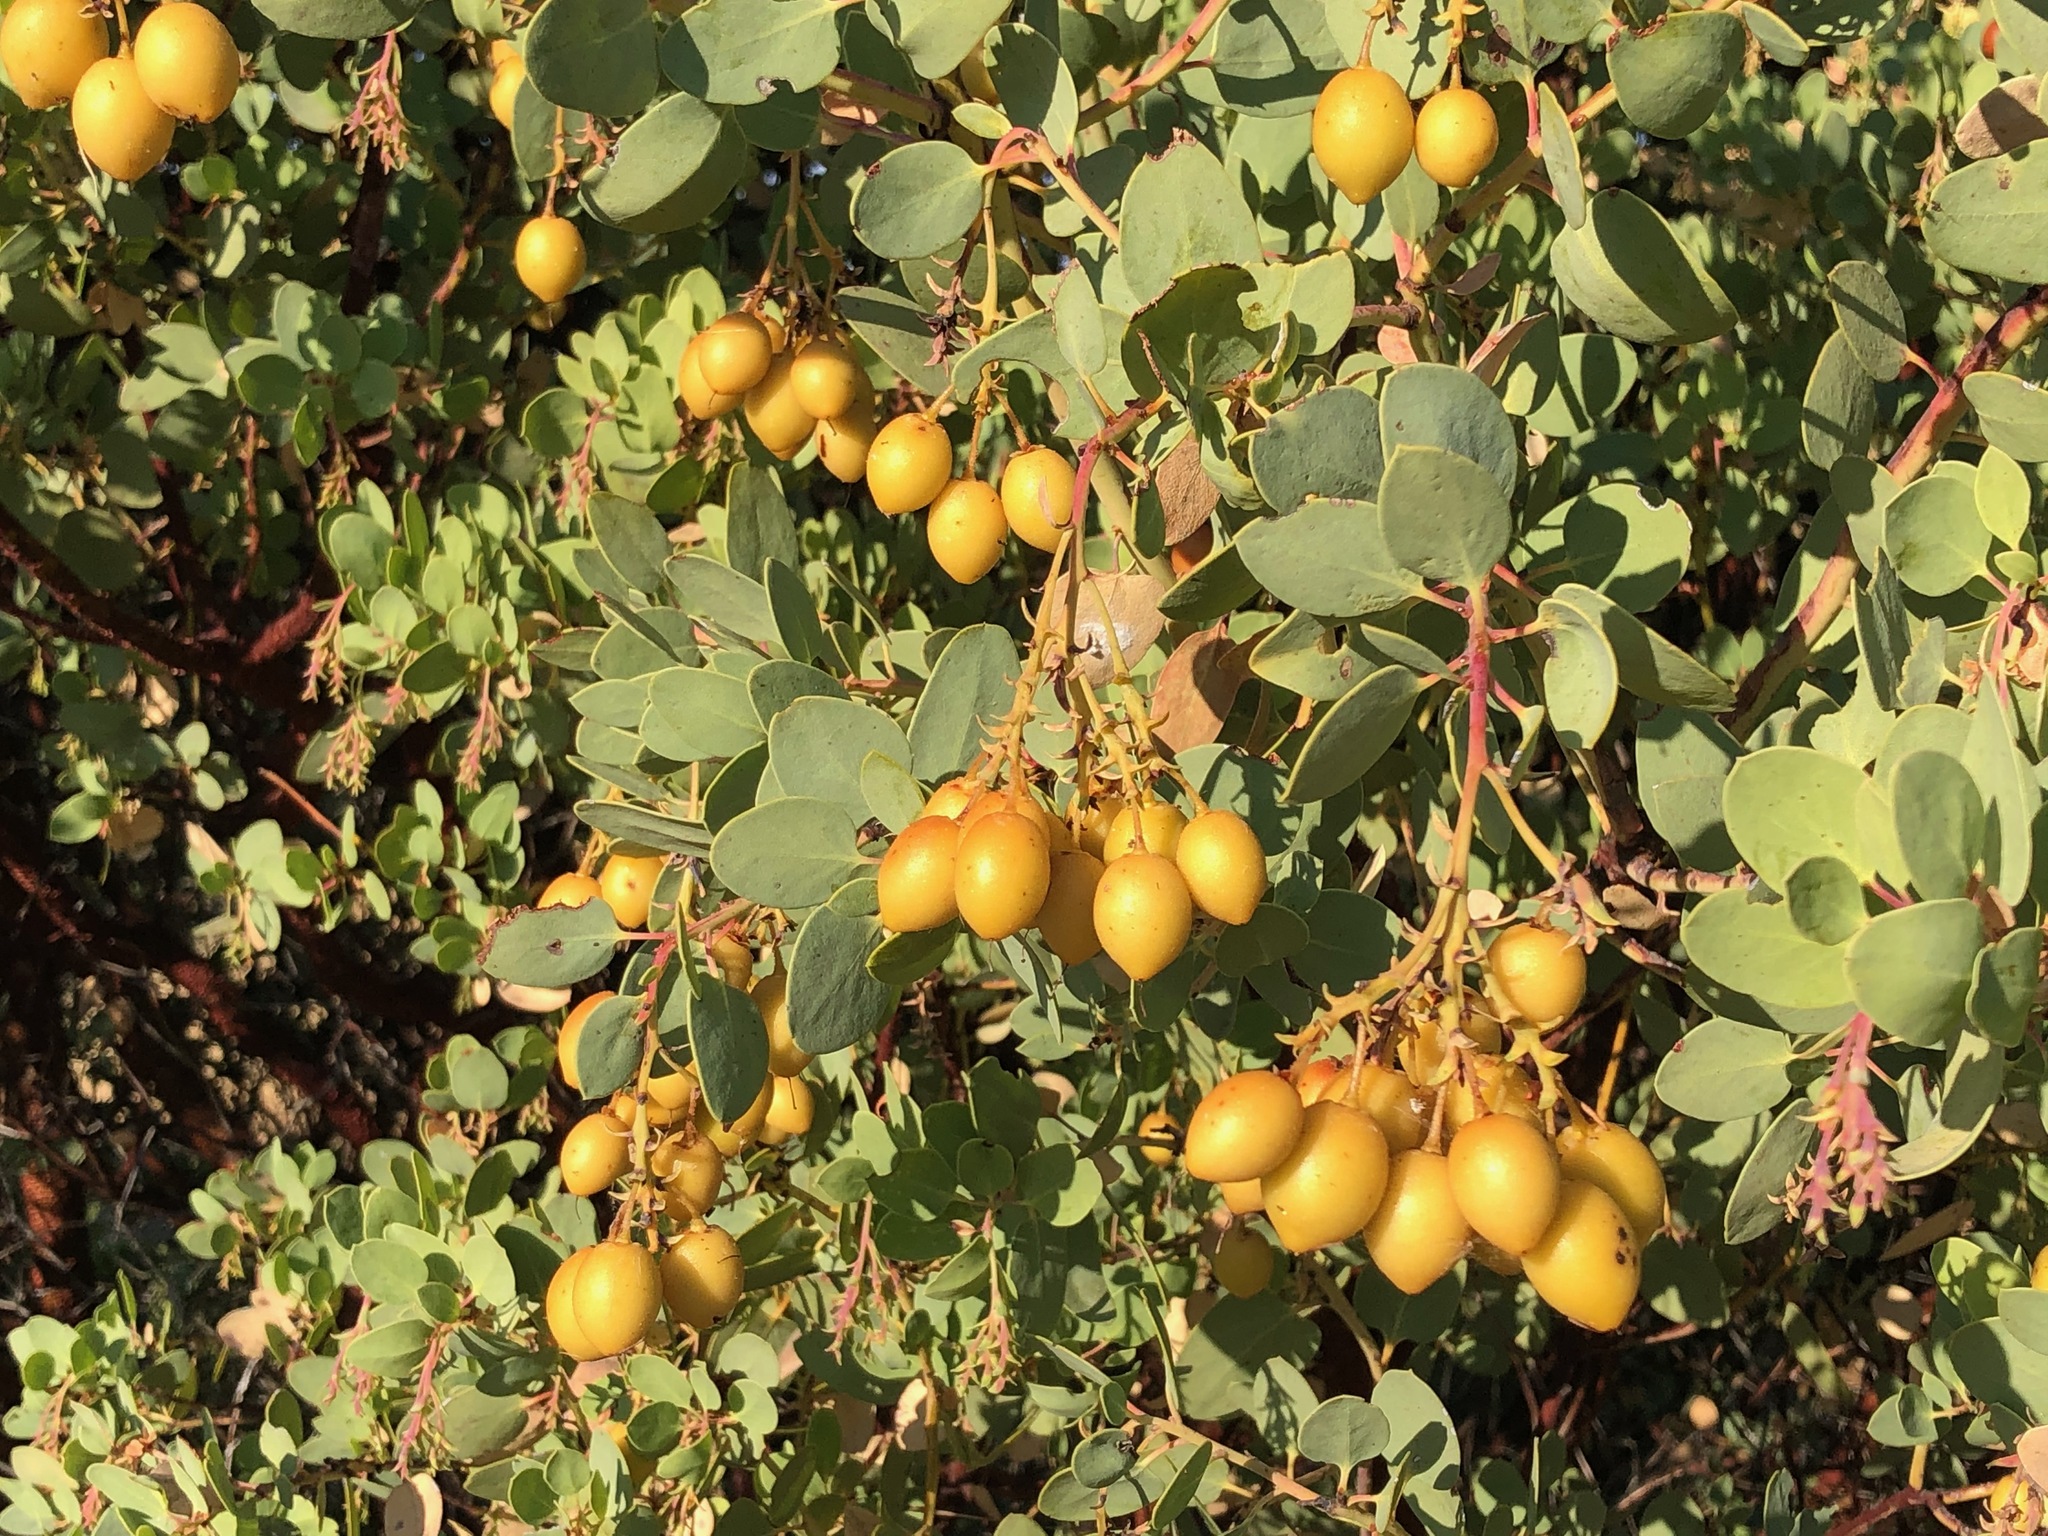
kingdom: Plantae
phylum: Tracheophyta
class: Magnoliopsida
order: Ericales
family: Ericaceae
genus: Arctostaphylos
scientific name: Arctostaphylos glauca
